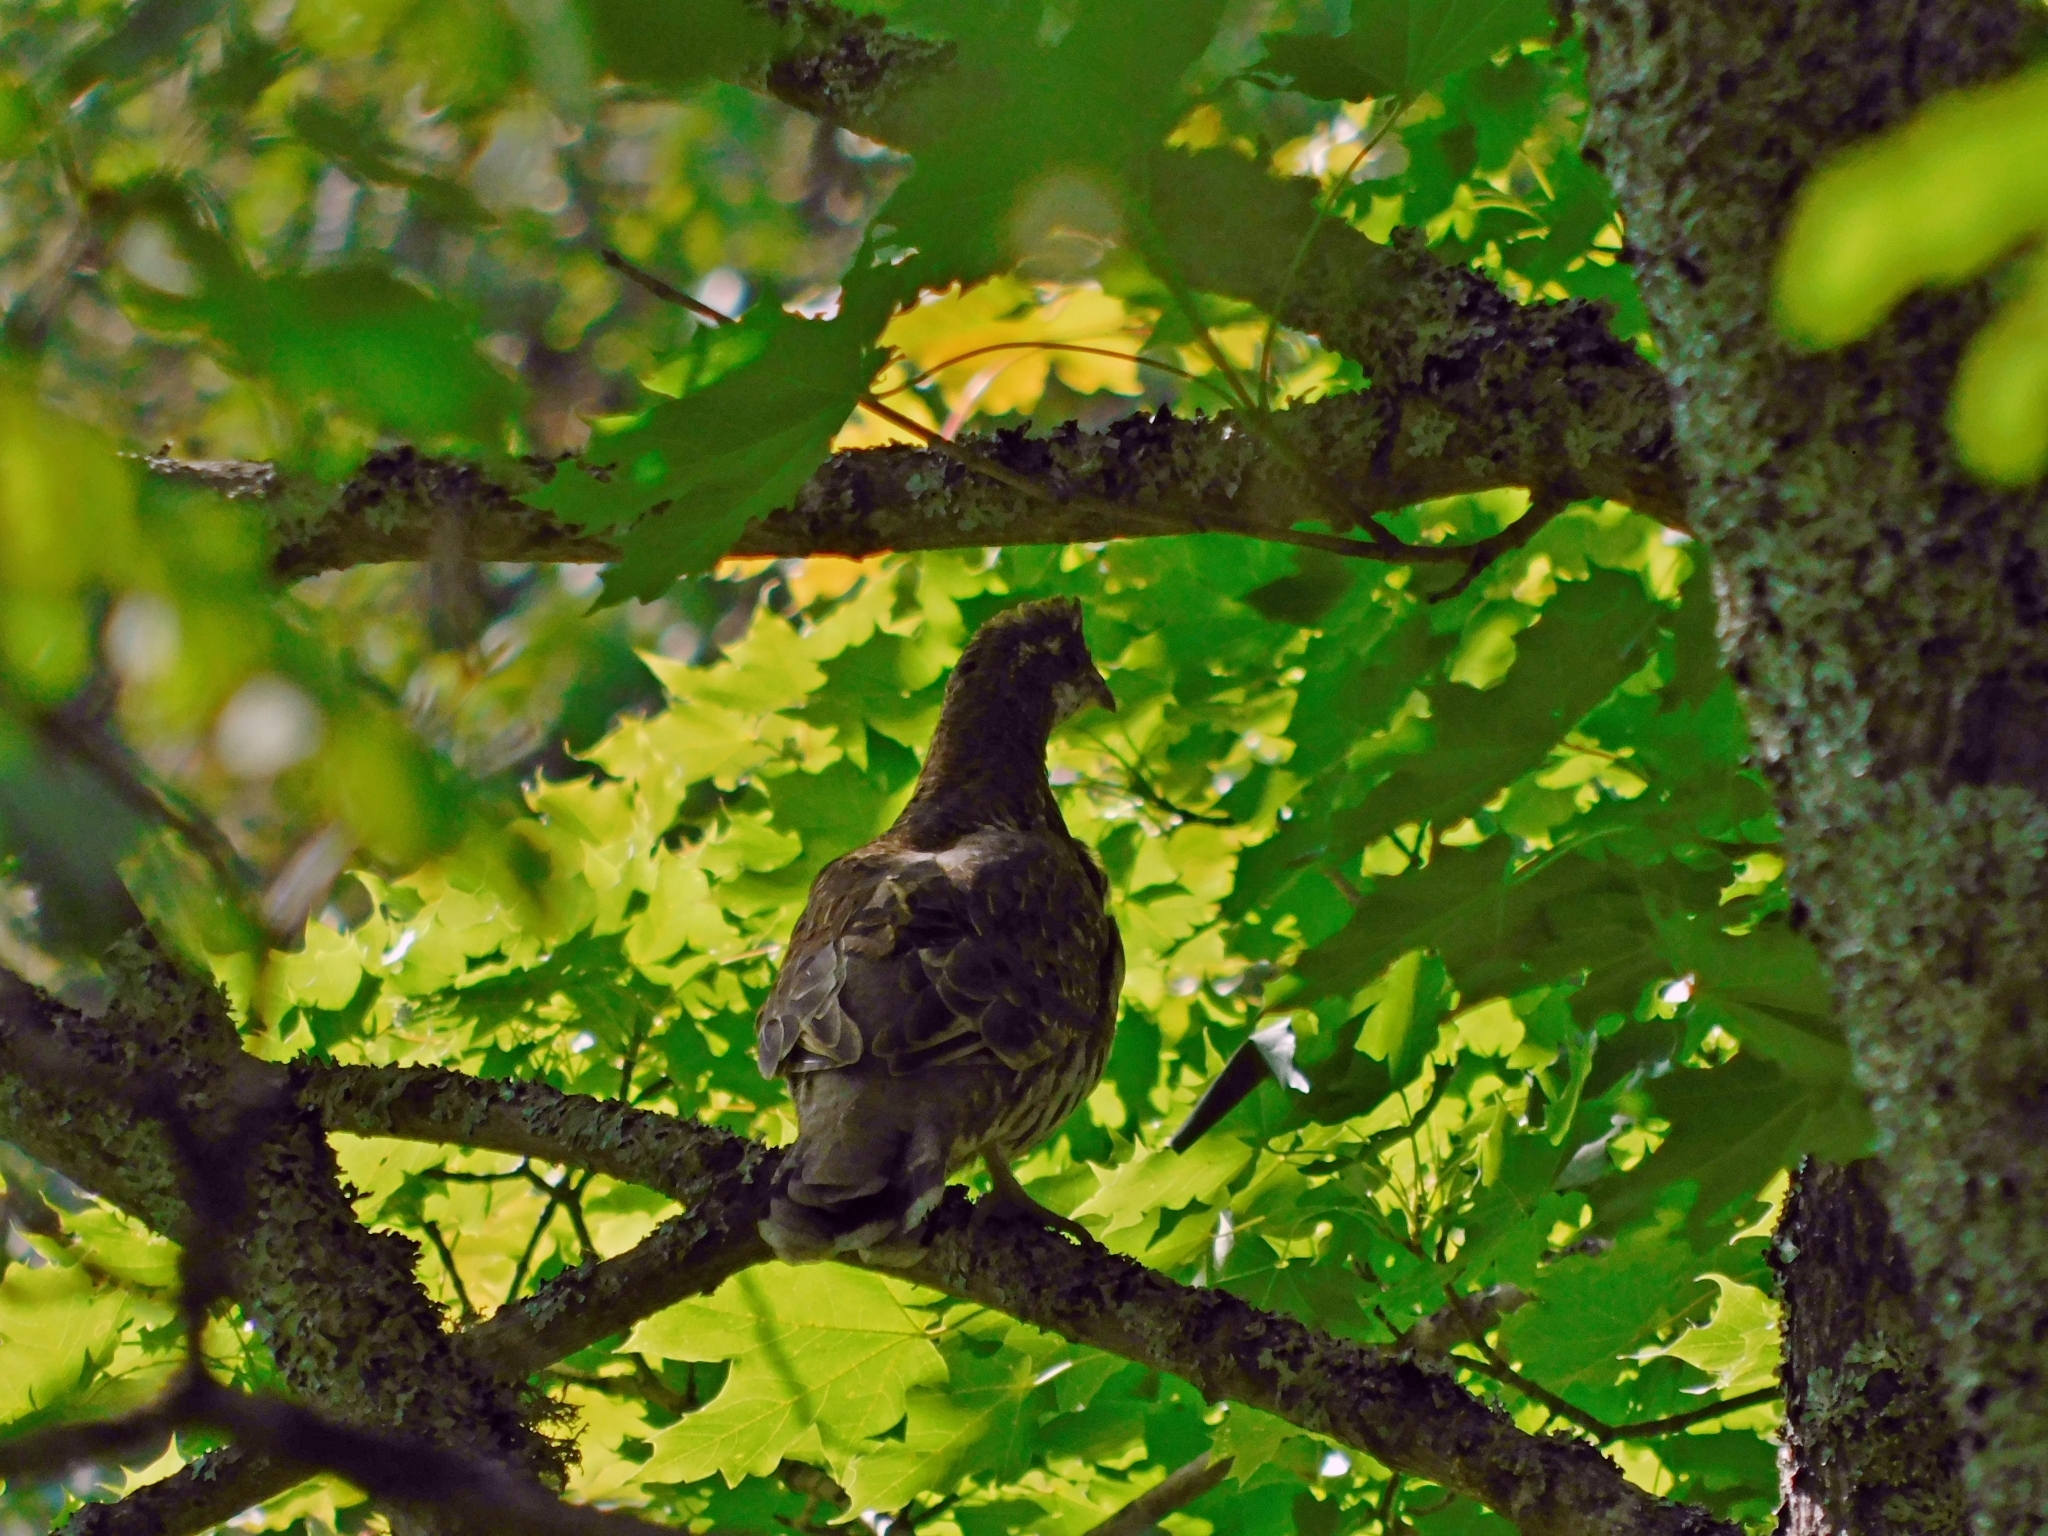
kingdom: Animalia
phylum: Chordata
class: Aves
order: Galliformes
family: Phasianidae
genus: Tetrastes
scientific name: Tetrastes bonasia
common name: Hazel grouse
